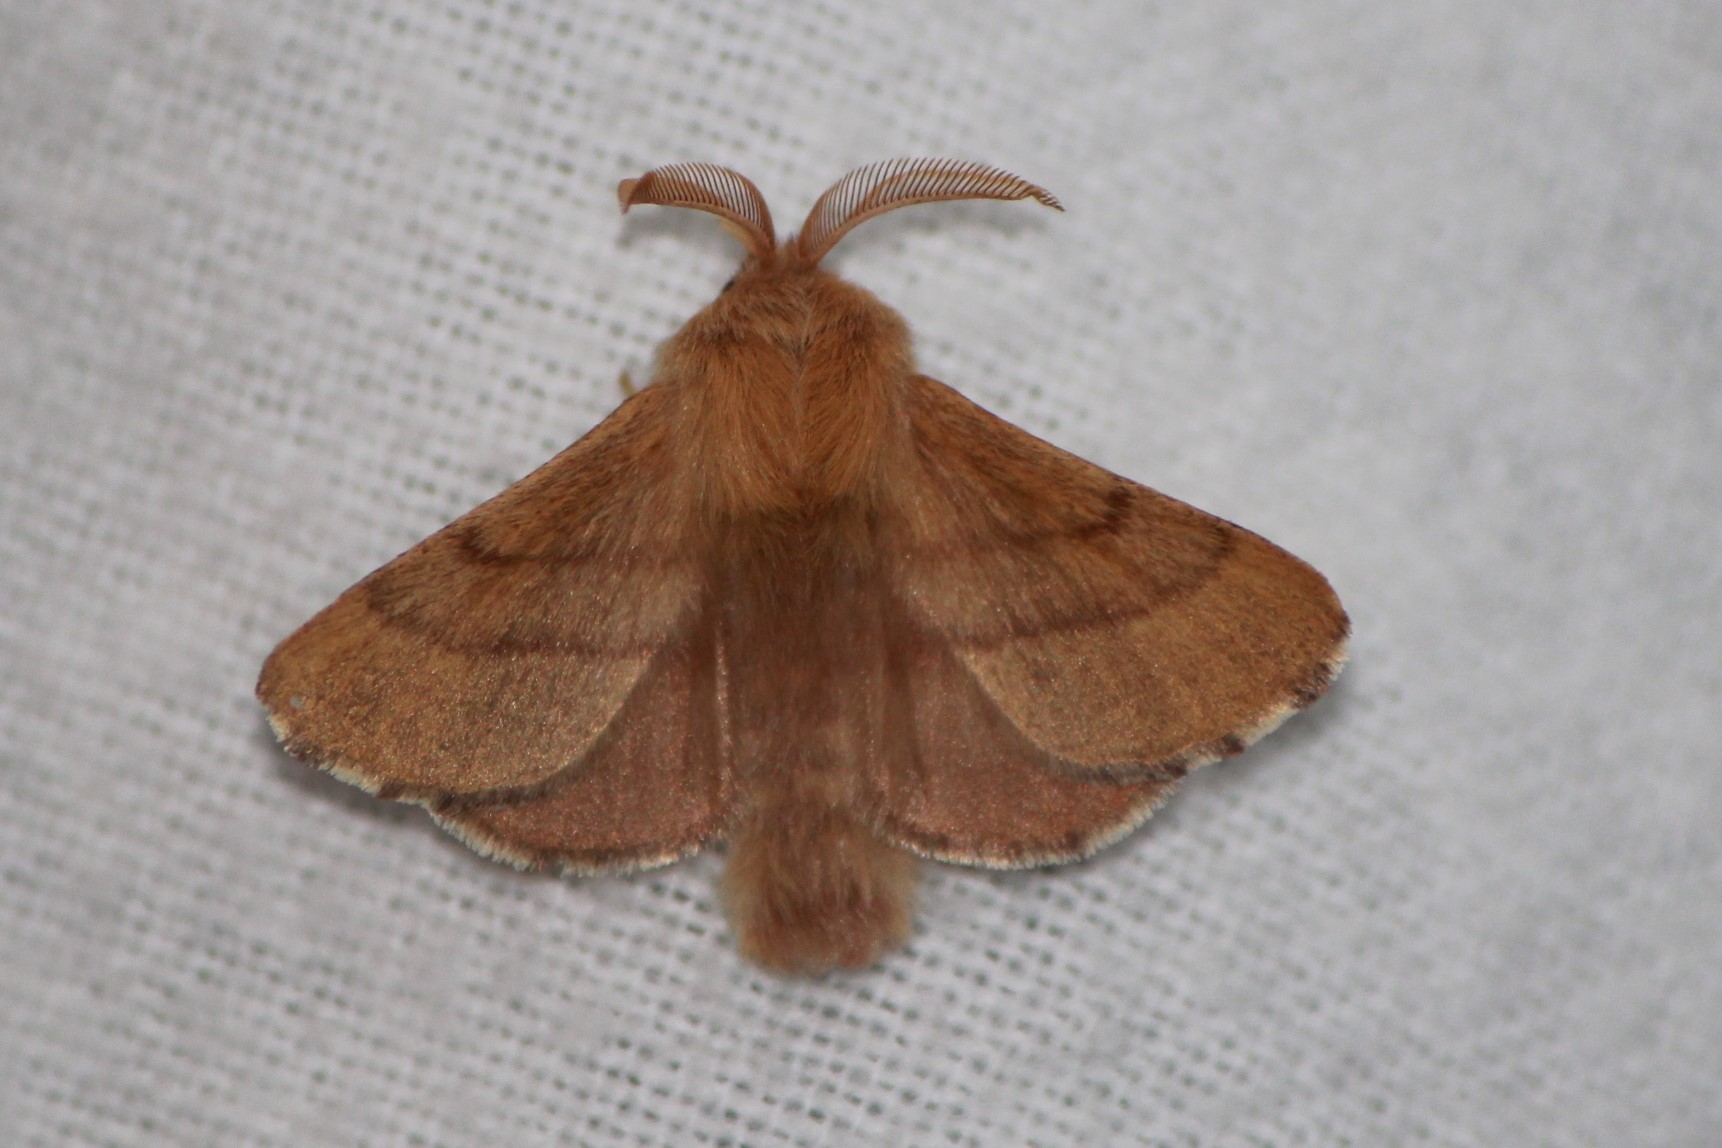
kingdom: Animalia
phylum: Arthropoda
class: Insecta
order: Lepidoptera
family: Lasiocampidae
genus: Malacosoma
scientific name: Malacosoma disstria
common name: Forest tent caterpillar
